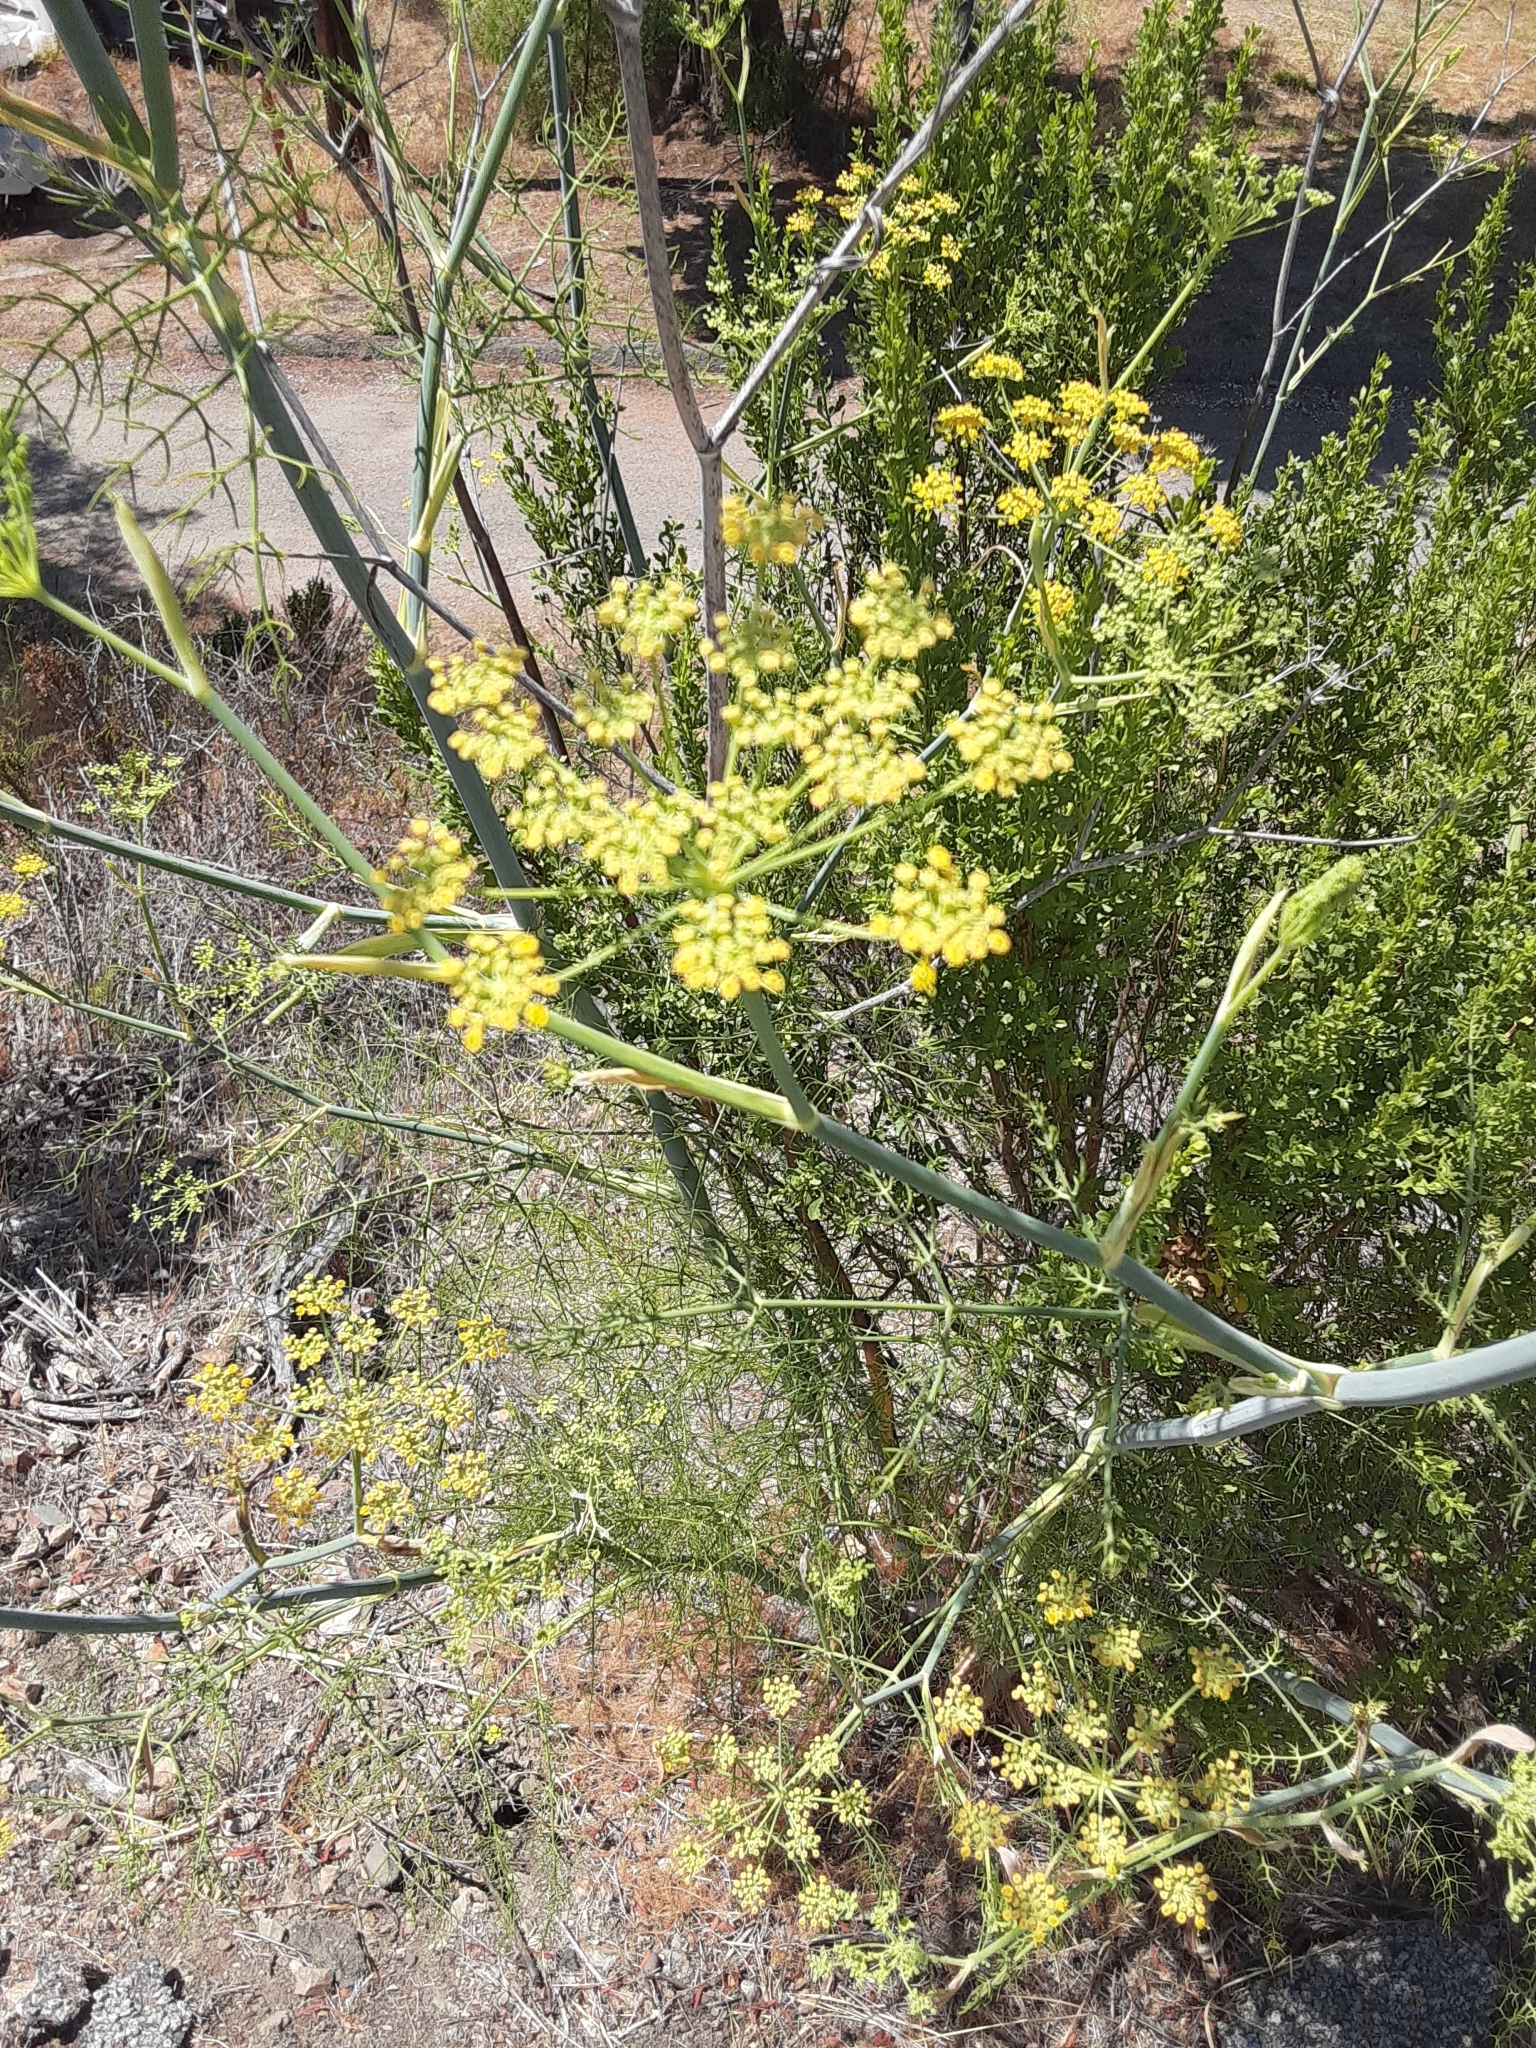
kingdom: Plantae
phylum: Tracheophyta
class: Magnoliopsida
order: Apiales
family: Apiaceae
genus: Foeniculum
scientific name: Foeniculum vulgare
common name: Fennel
